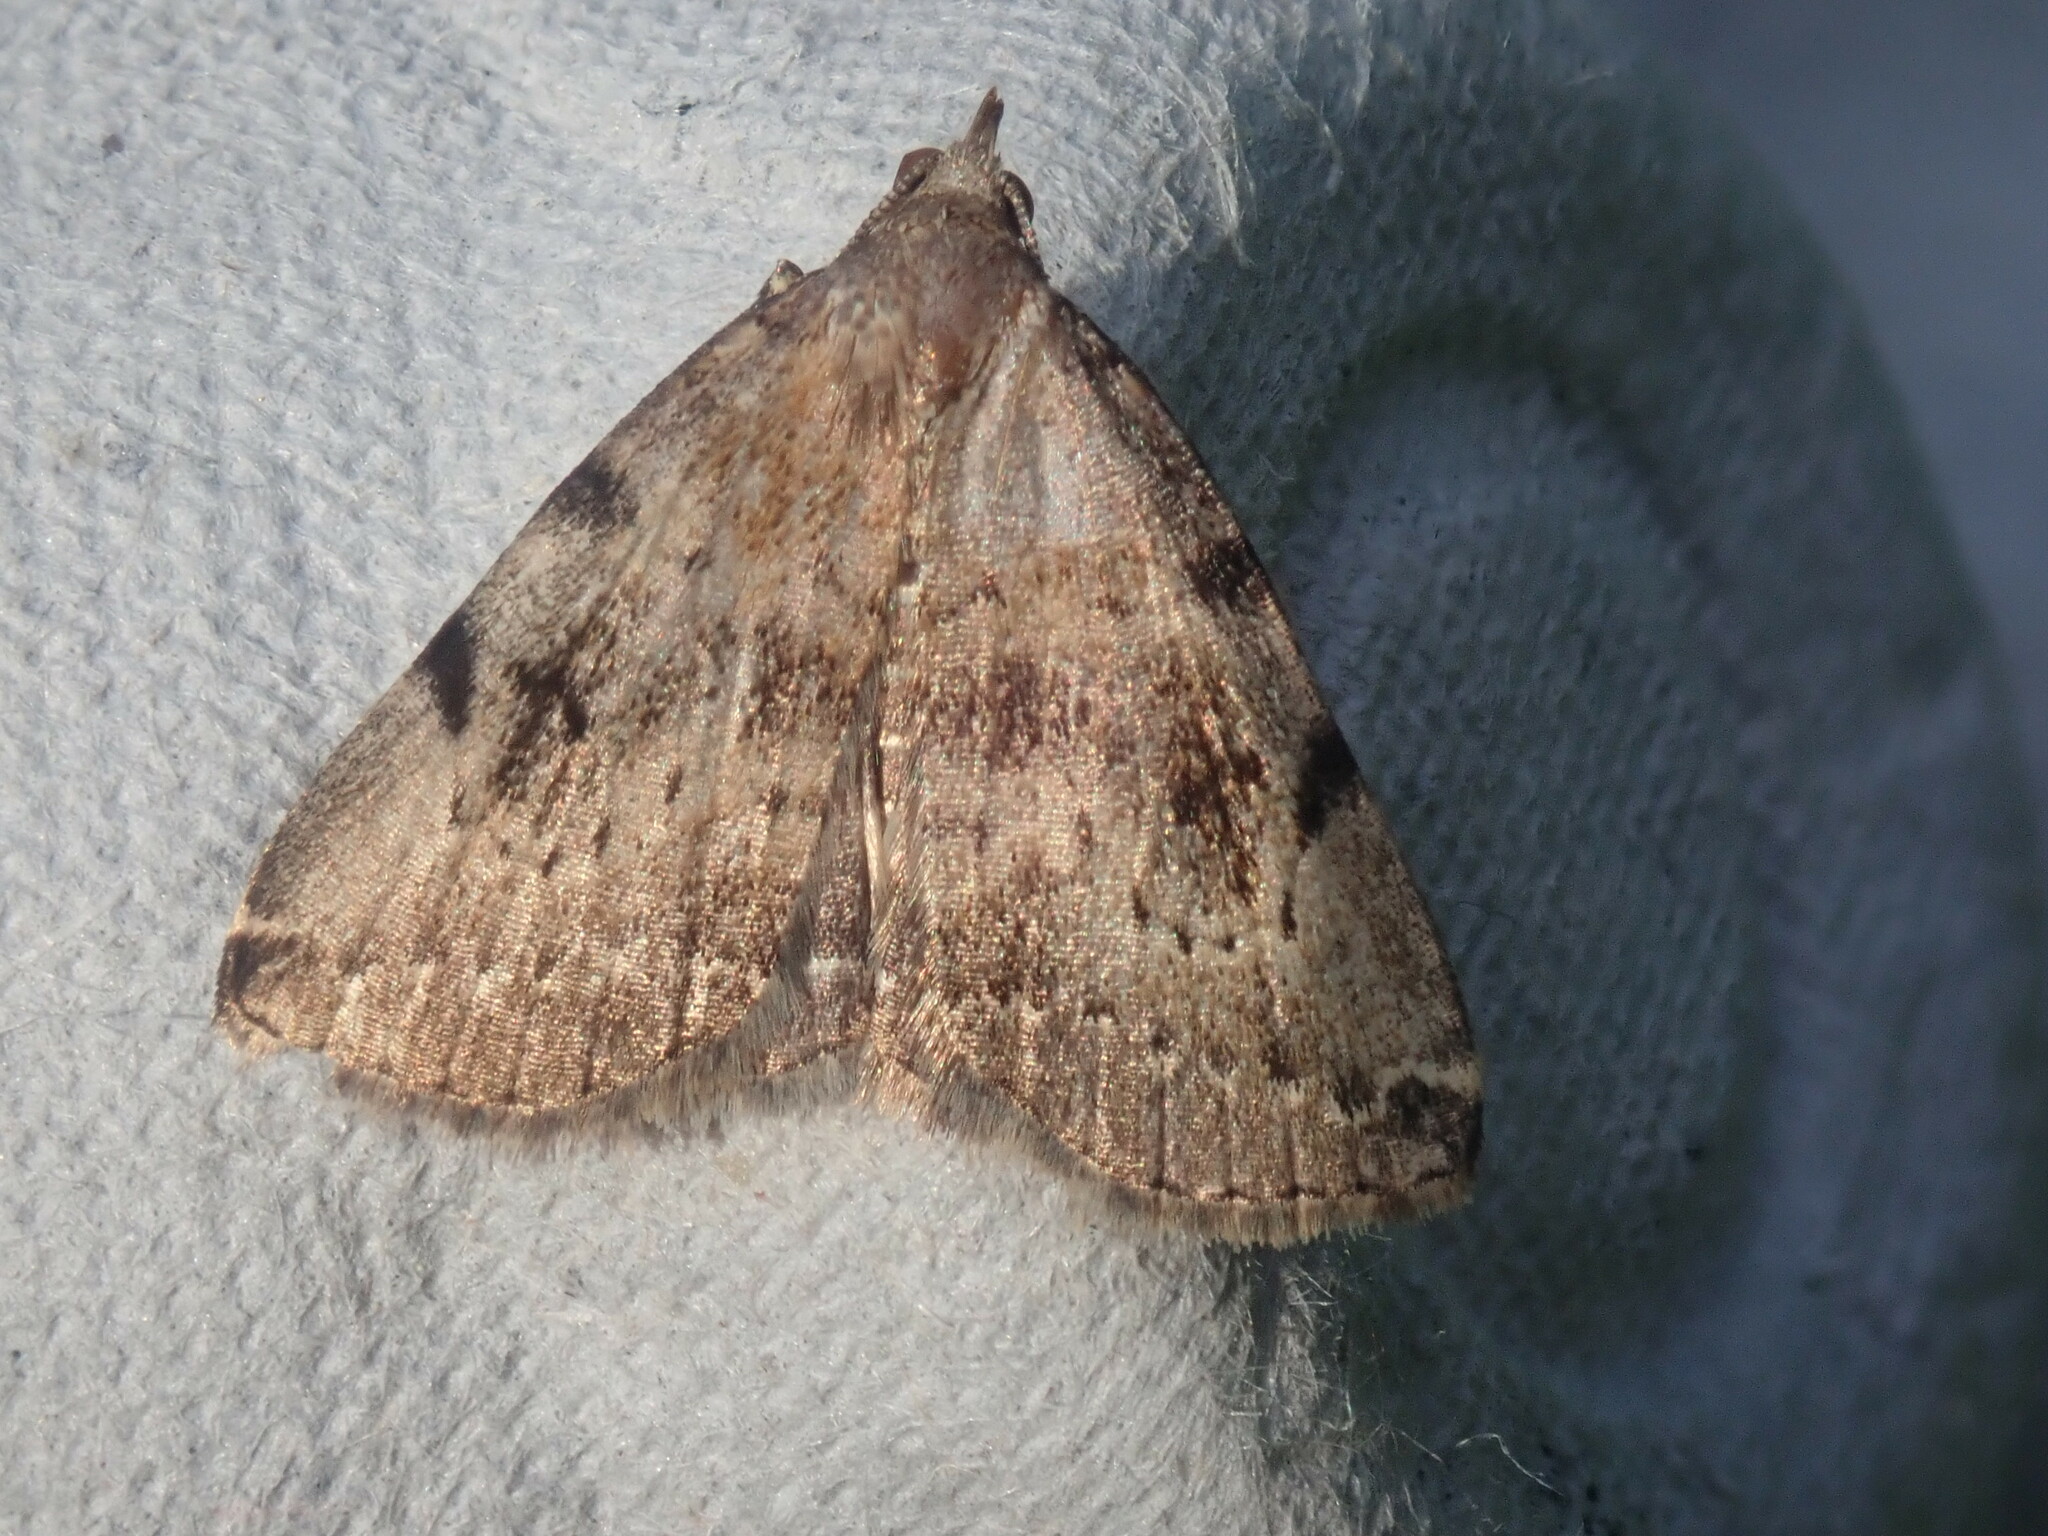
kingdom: Animalia
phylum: Arthropoda
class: Insecta
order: Lepidoptera
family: Erebidae
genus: Zanclognatha
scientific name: Zanclognatha lituralis
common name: Lettered fan-foot
